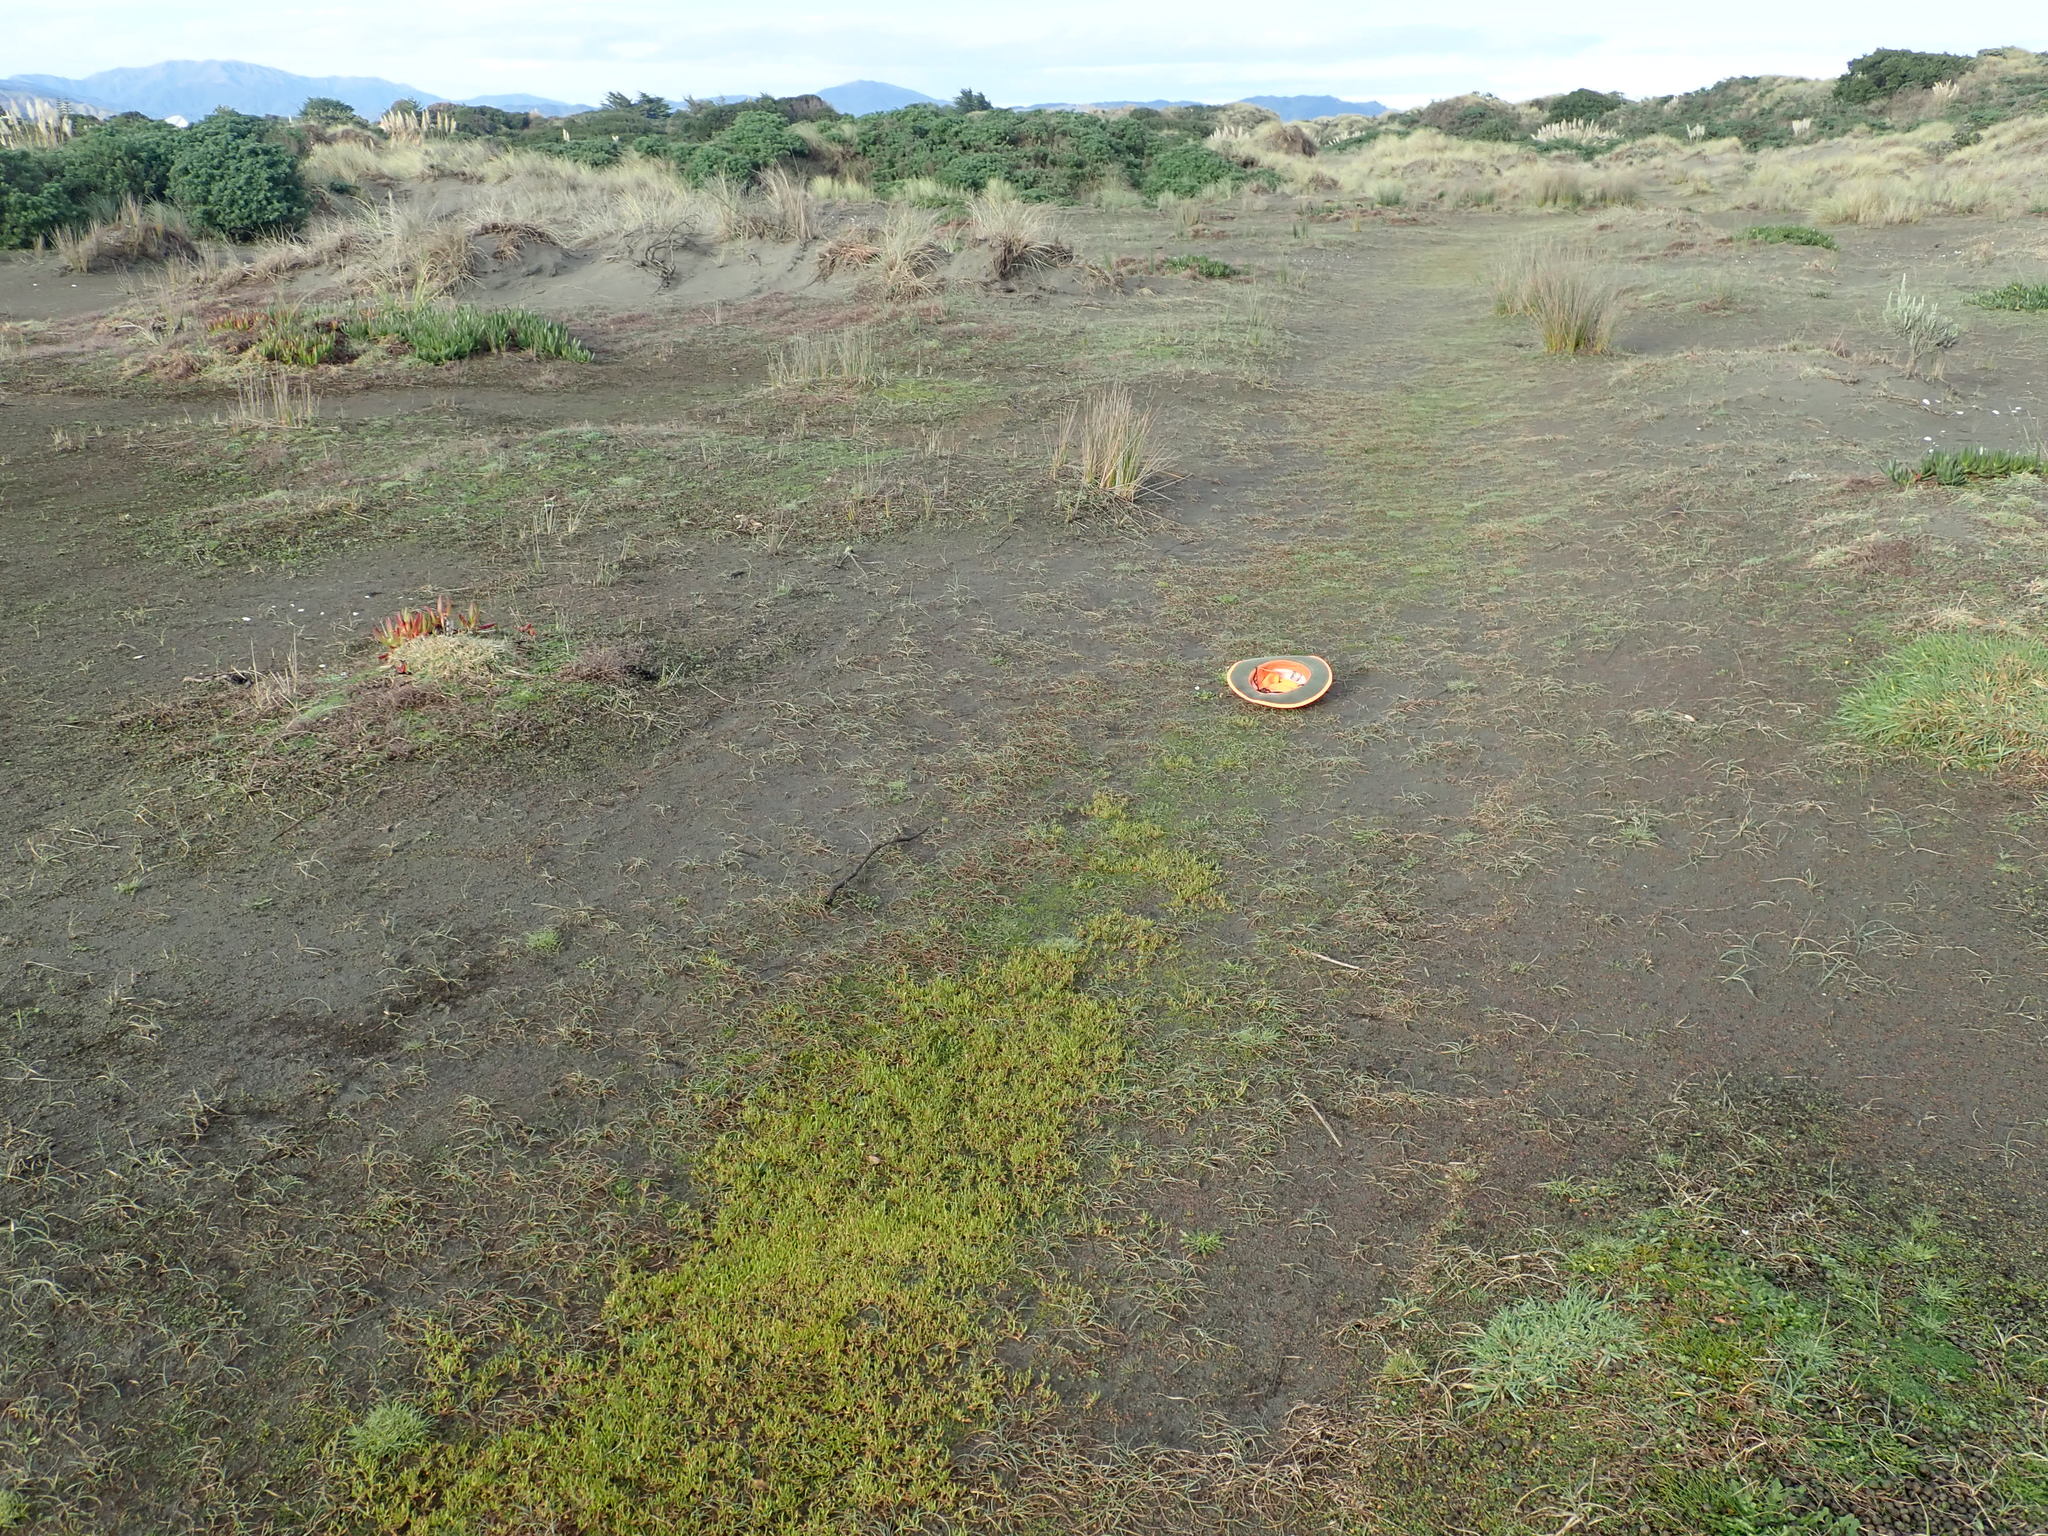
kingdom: Plantae
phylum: Tracheophyta
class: Magnoliopsida
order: Asterales
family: Asteraceae
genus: Bellis
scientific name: Bellis perennis
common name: Lawndaisy
